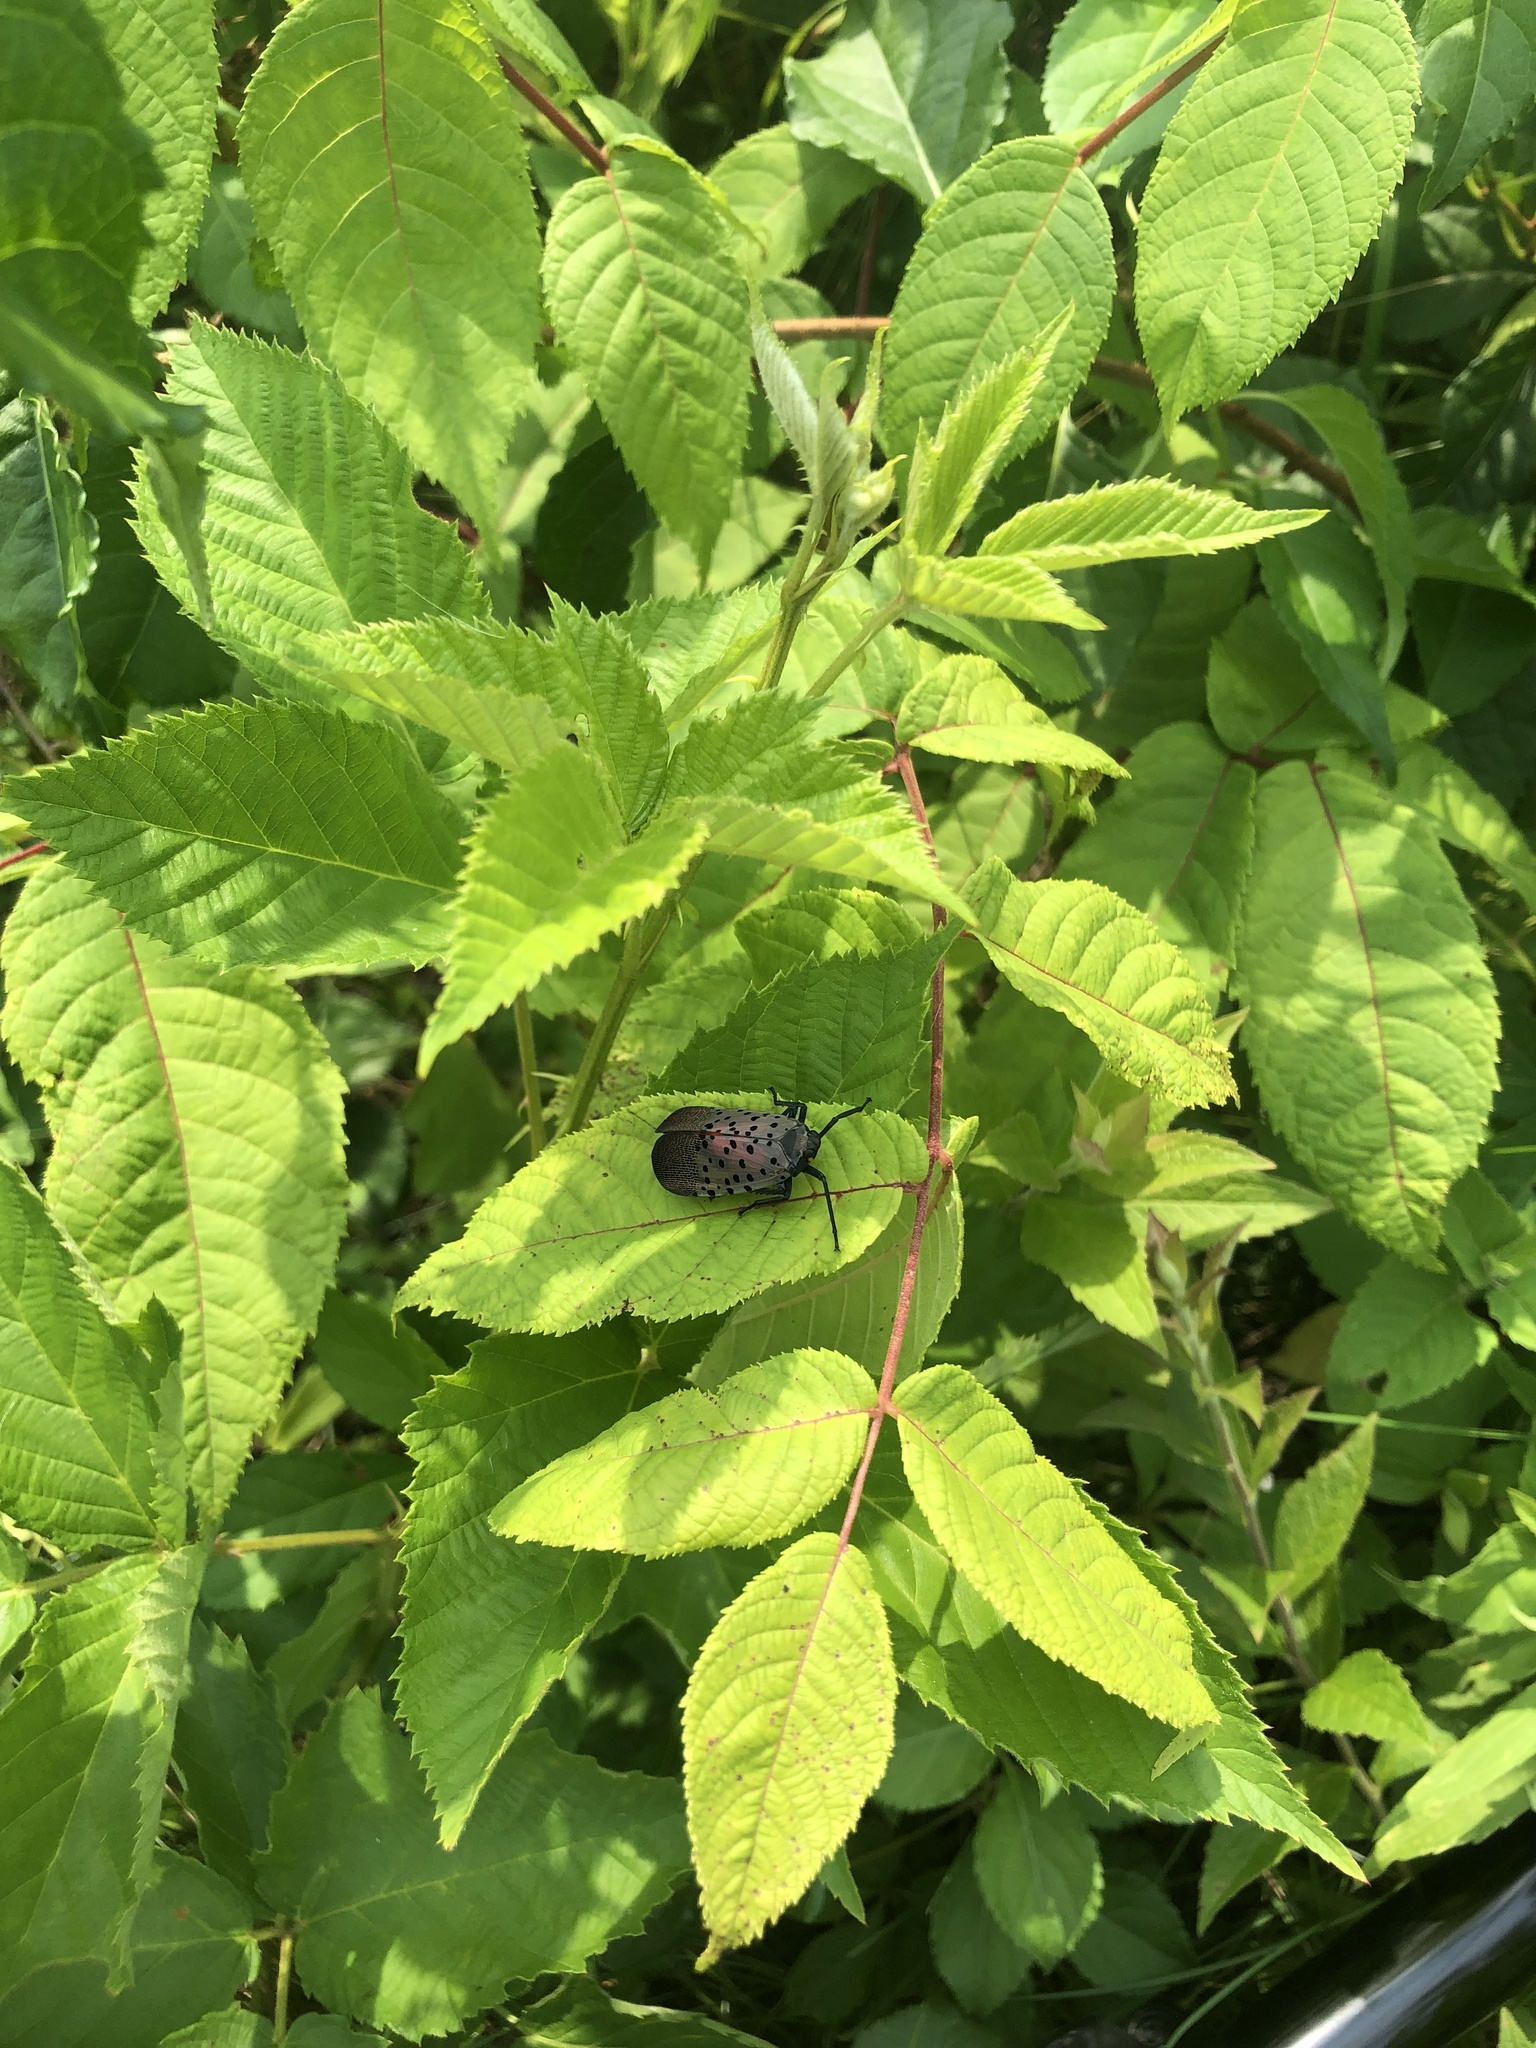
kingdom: Animalia
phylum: Arthropoda
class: Insecta
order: Hemiptera
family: Fulgoridae
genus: Lycorma
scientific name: Lycorma delicatula
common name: Spotted lanternfly
